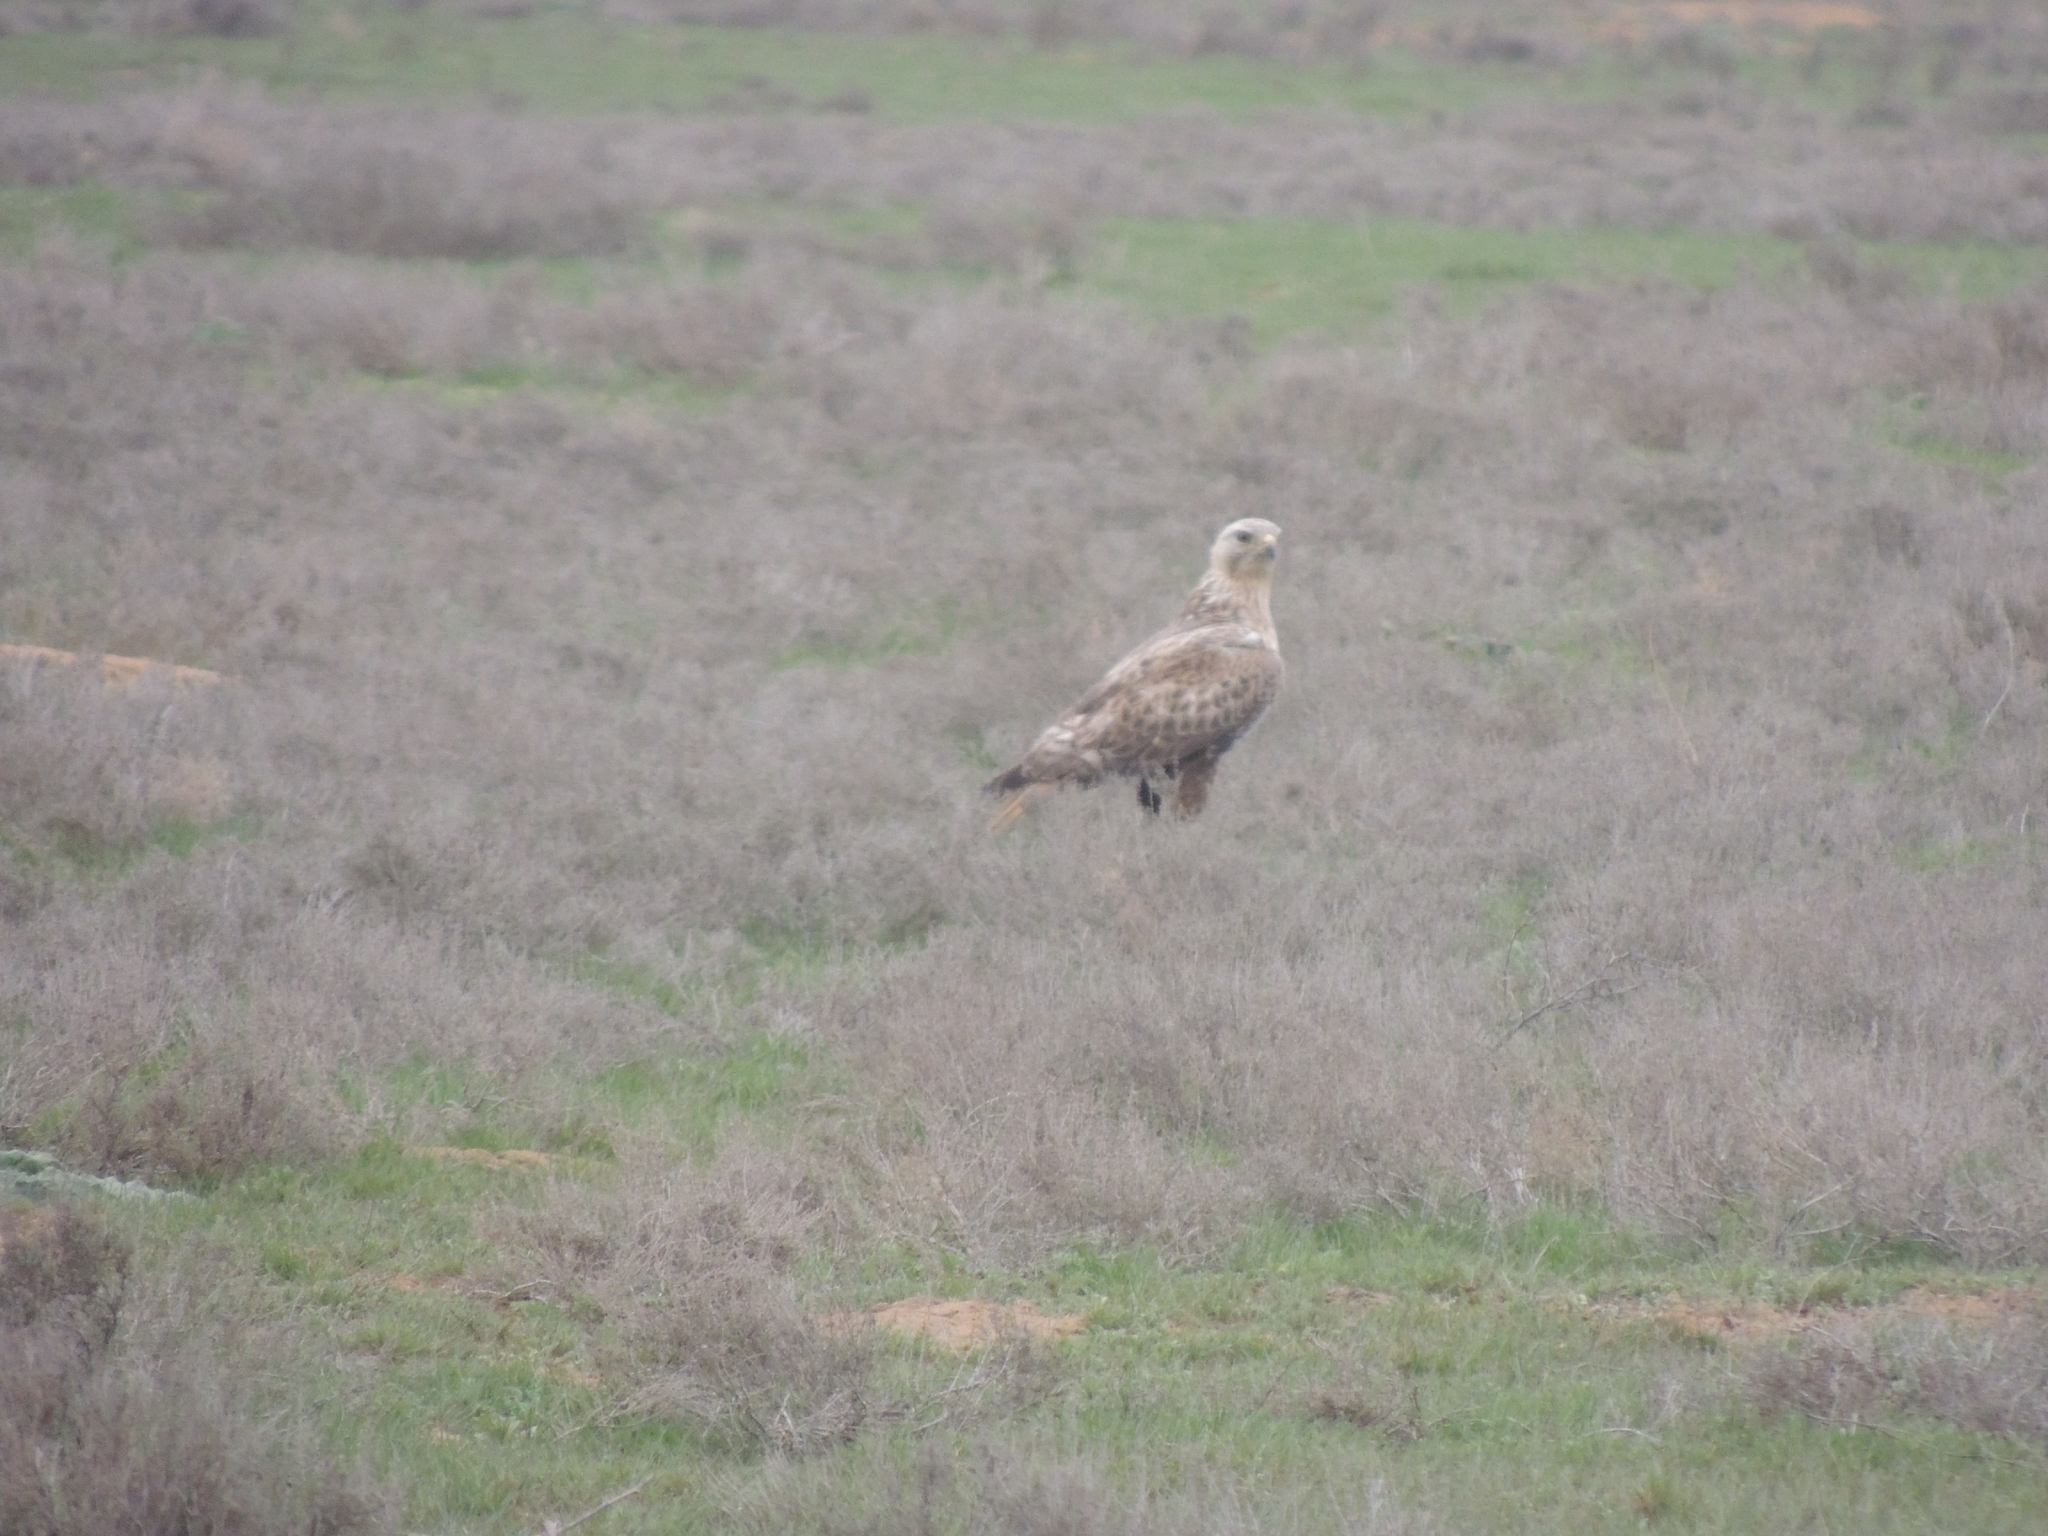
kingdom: Animalia
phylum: Chordata
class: Aves
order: Accipitriformes
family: Accipitridae
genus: Buteo
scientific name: Buteo rufinus
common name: Long-legged buzzard
